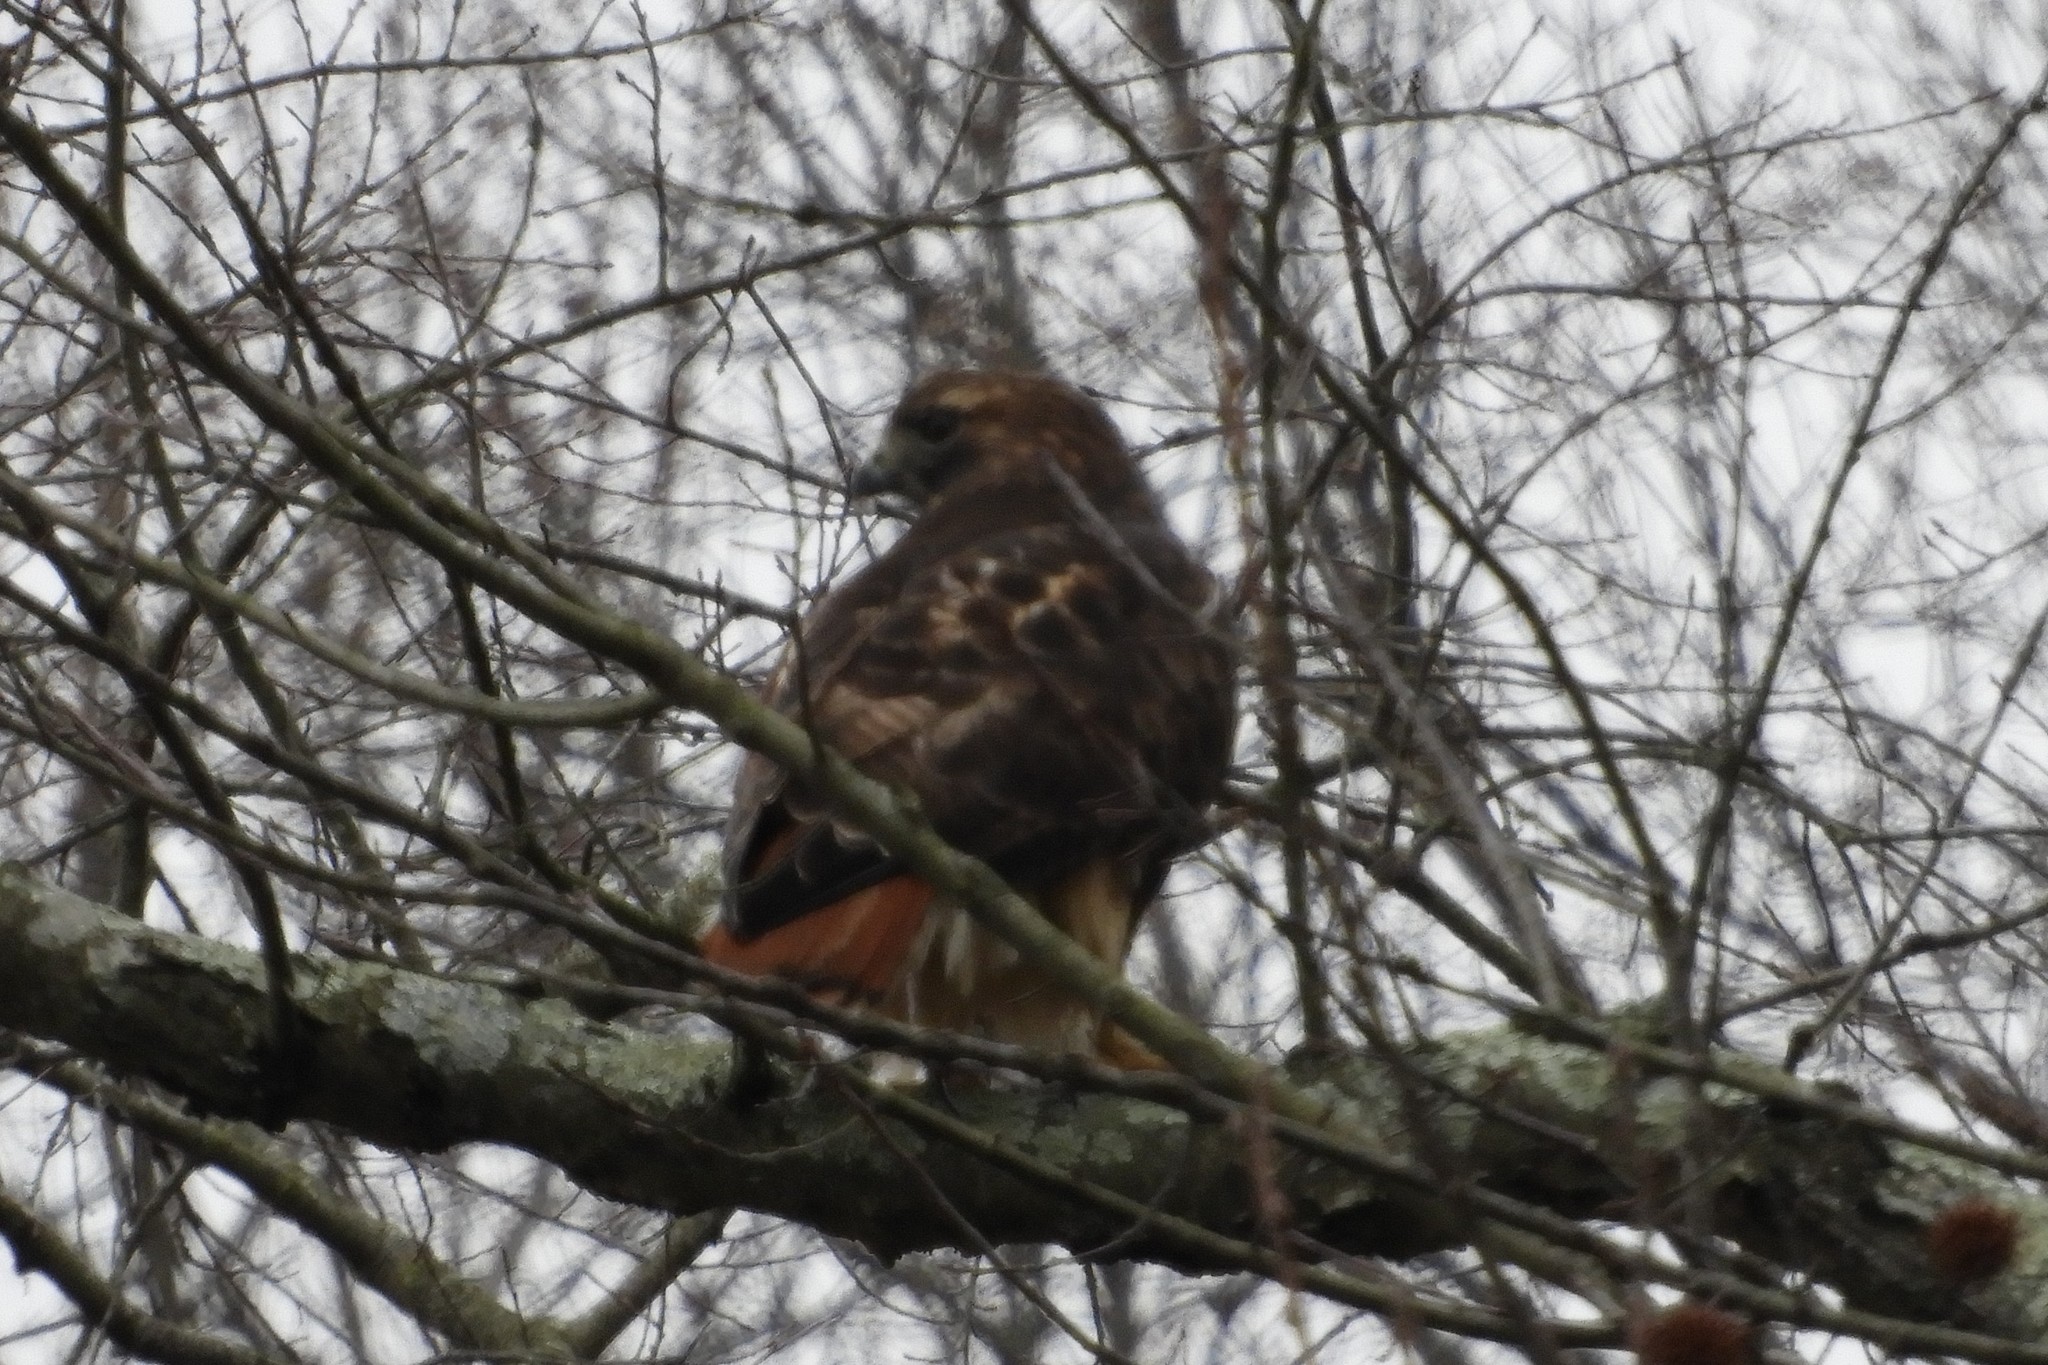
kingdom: Animalia
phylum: Chordata
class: Aves
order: Accipitriformes
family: Accipitridae
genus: Buteo
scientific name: Buteo jamaicensis
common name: Red-tailed hawk
